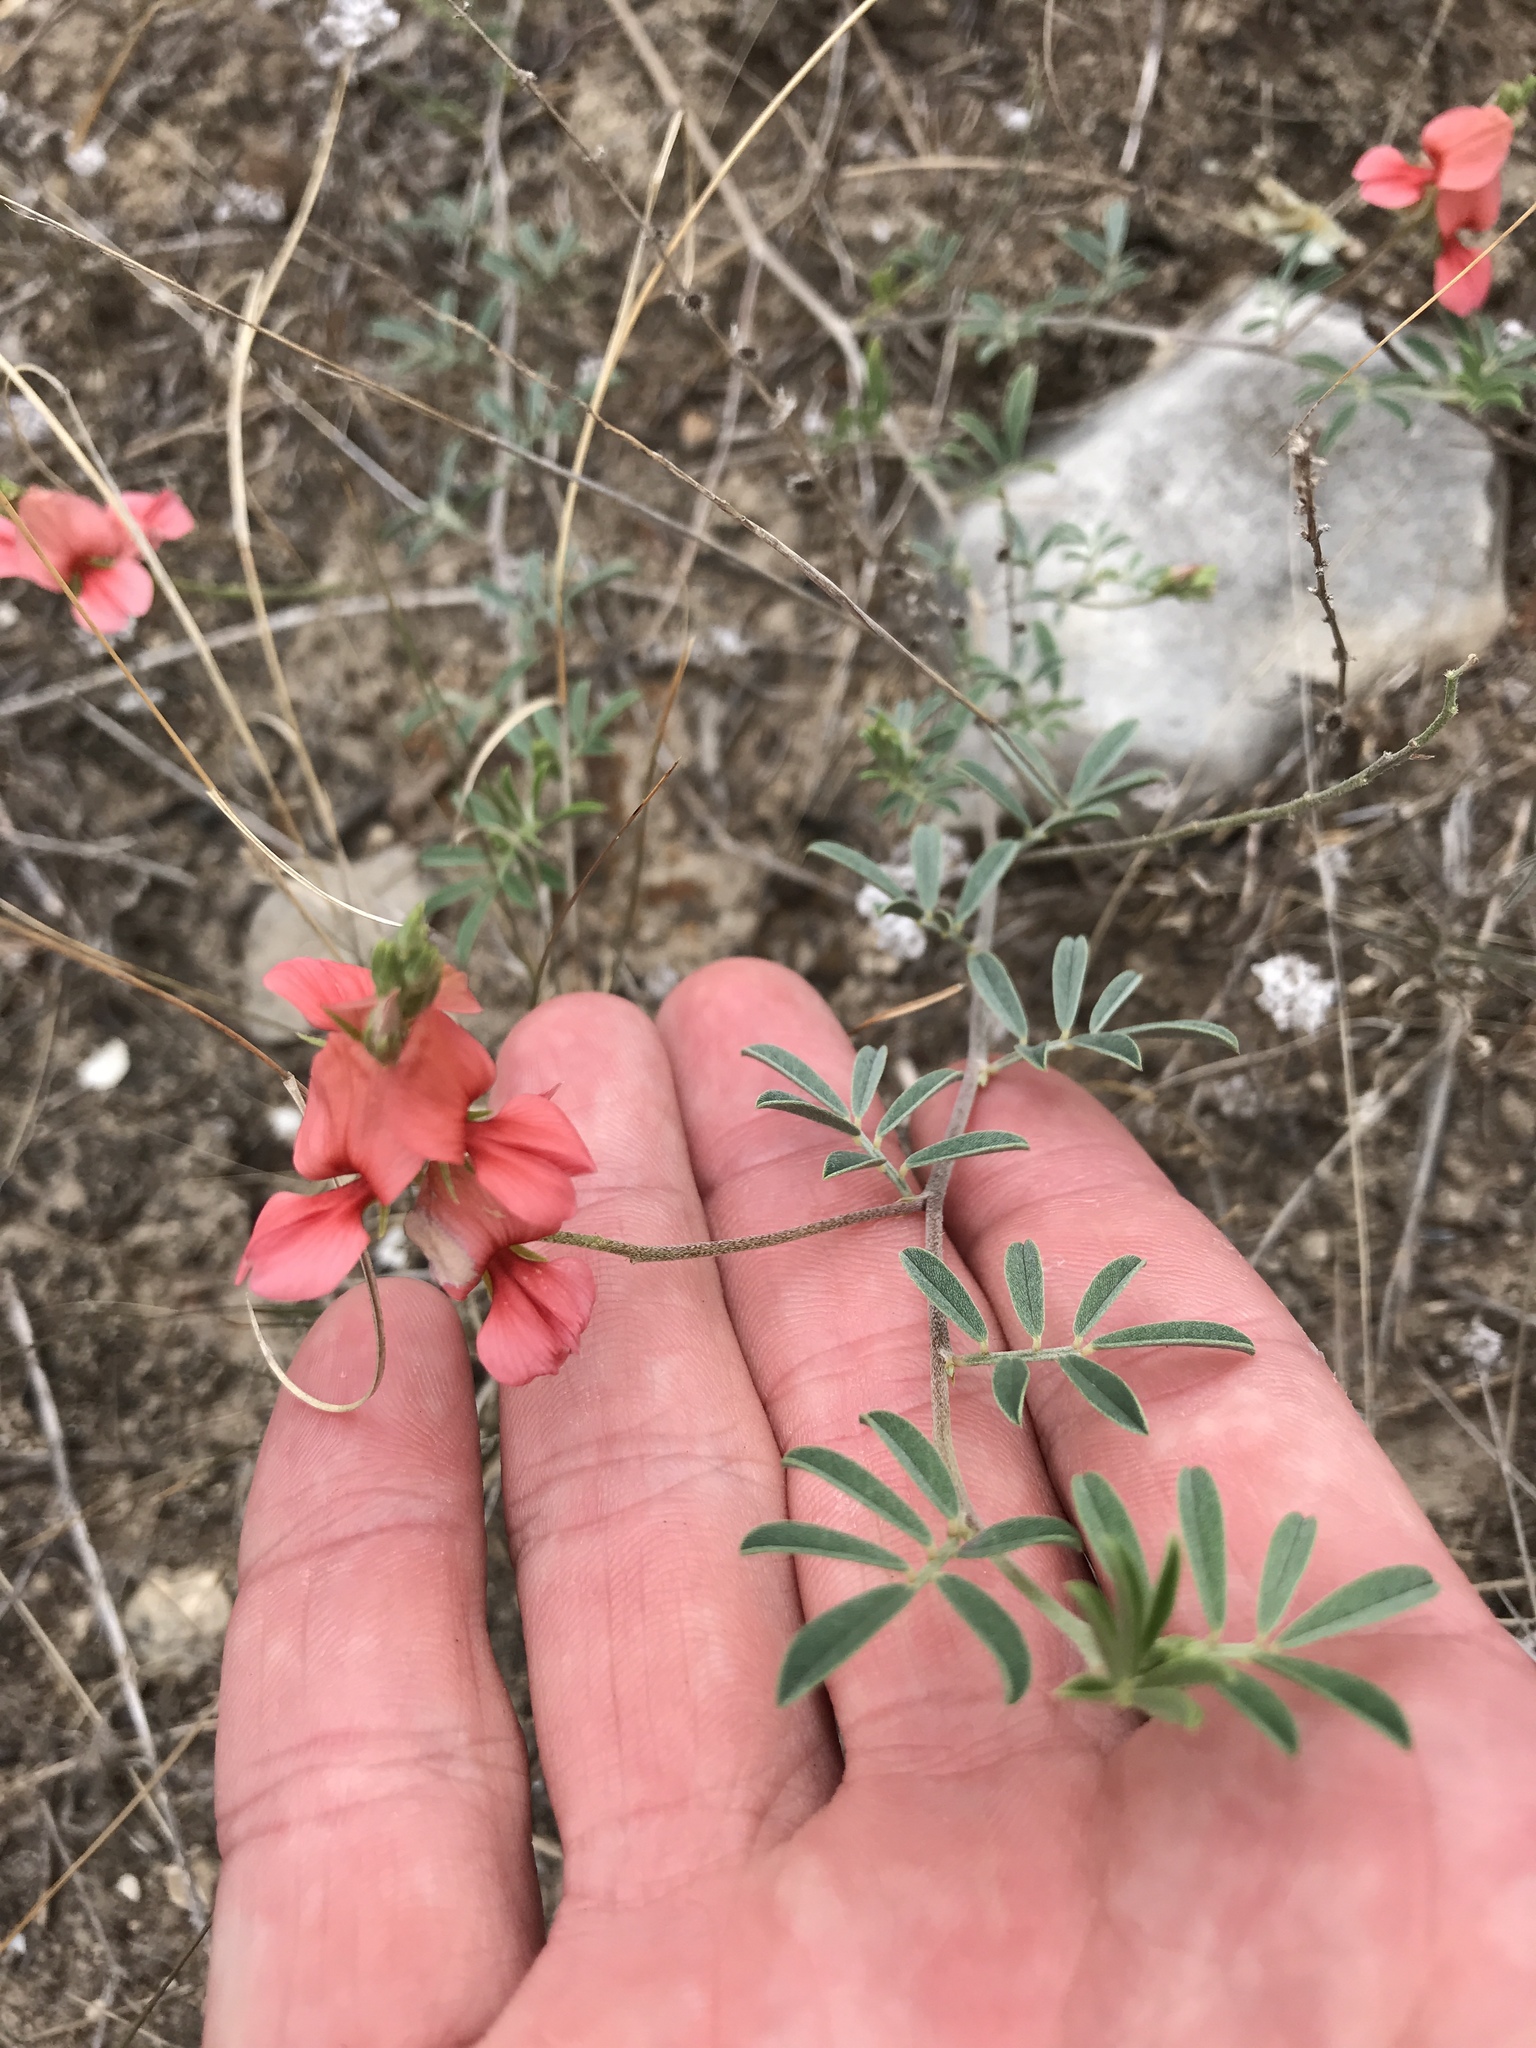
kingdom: Plantae
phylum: Tracheophyta
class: Magnoliopsida
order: Fabales
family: Fabaceae
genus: Indigofera
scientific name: Indigofera miniata
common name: Coast indigo
